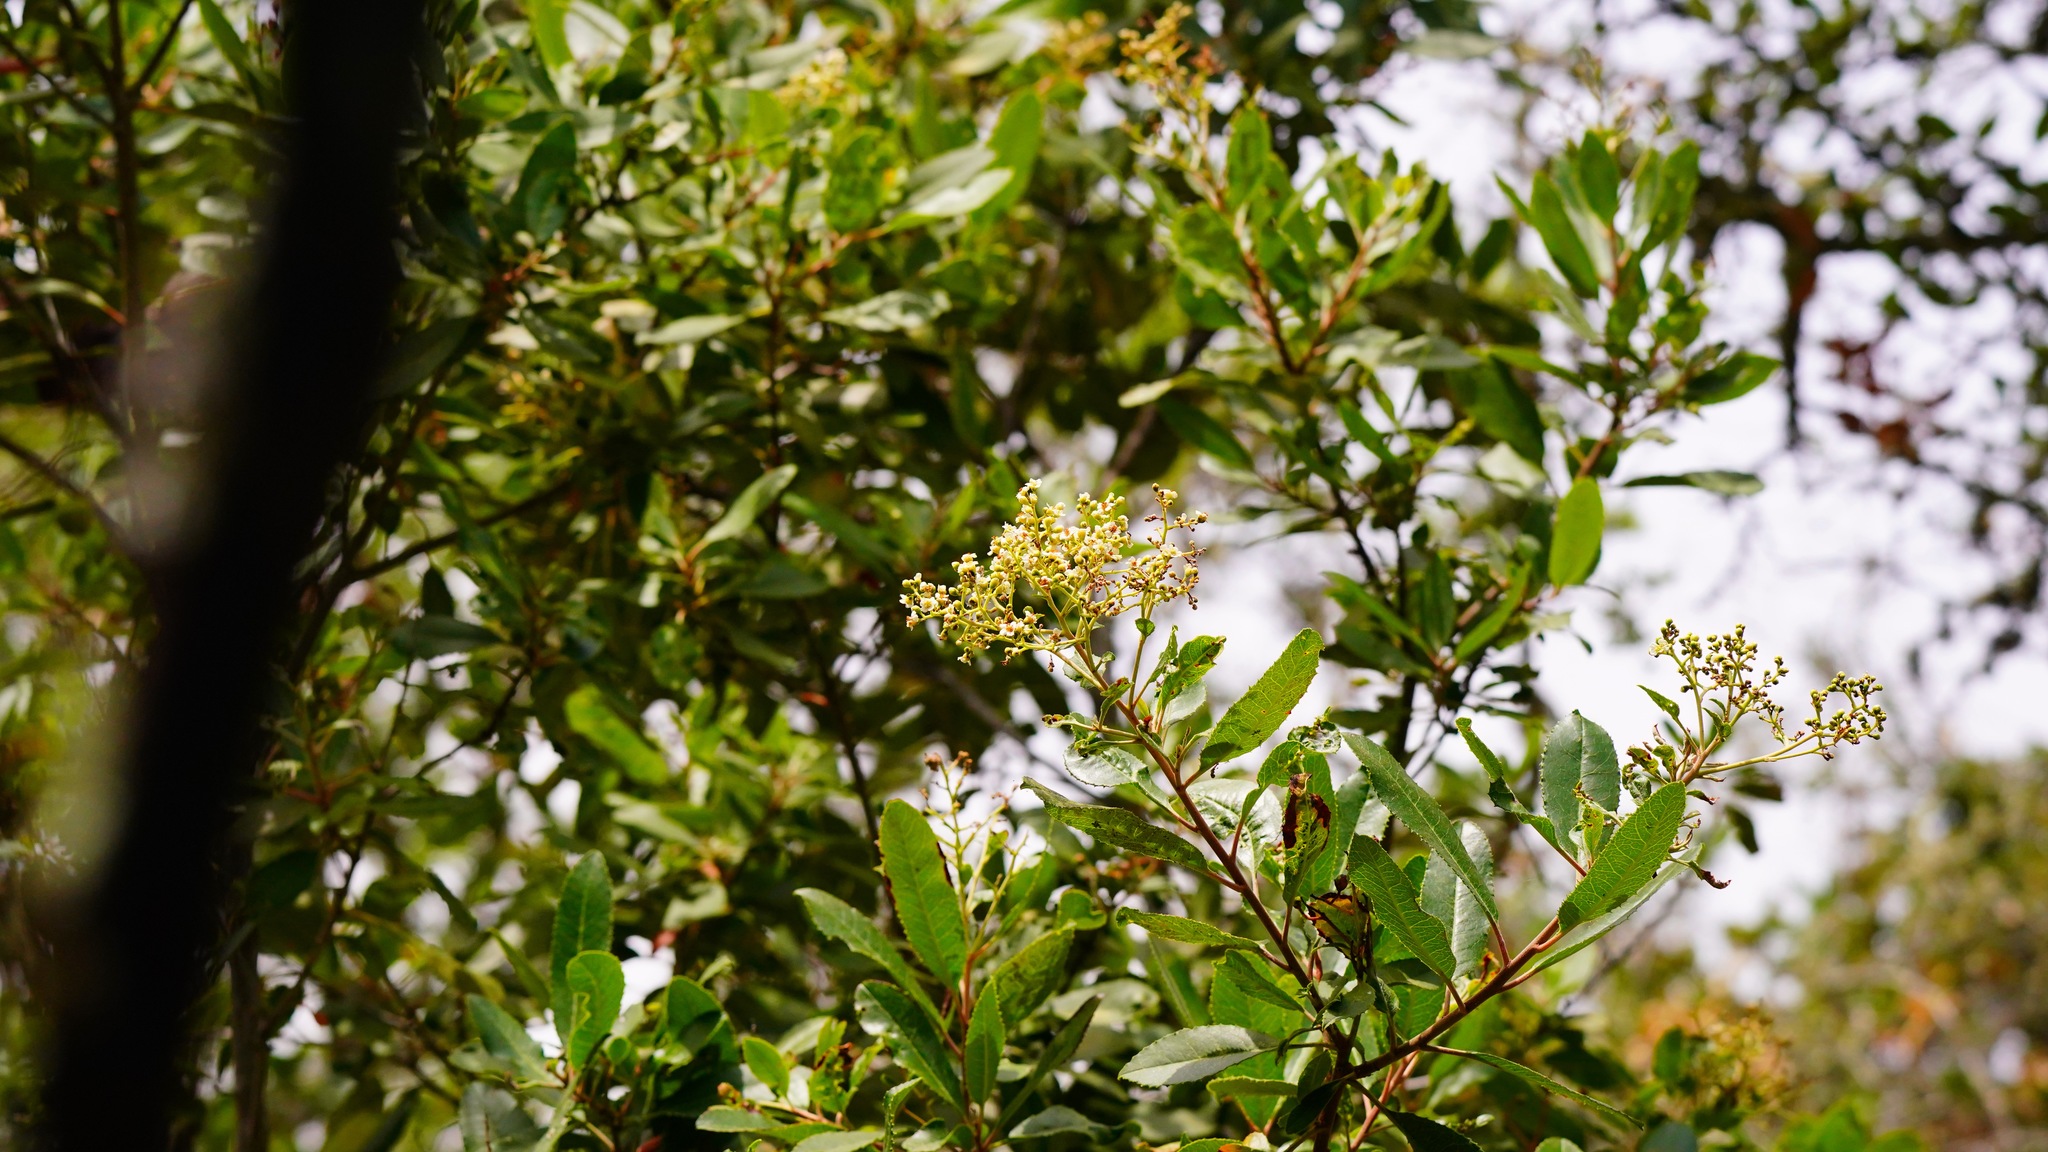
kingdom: Plantae
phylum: Tracheophyta
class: Magnoliopsida
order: Rosales
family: Rosaceae
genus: Heteromeles
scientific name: Heteromeles arbutifolia
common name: California-holly
